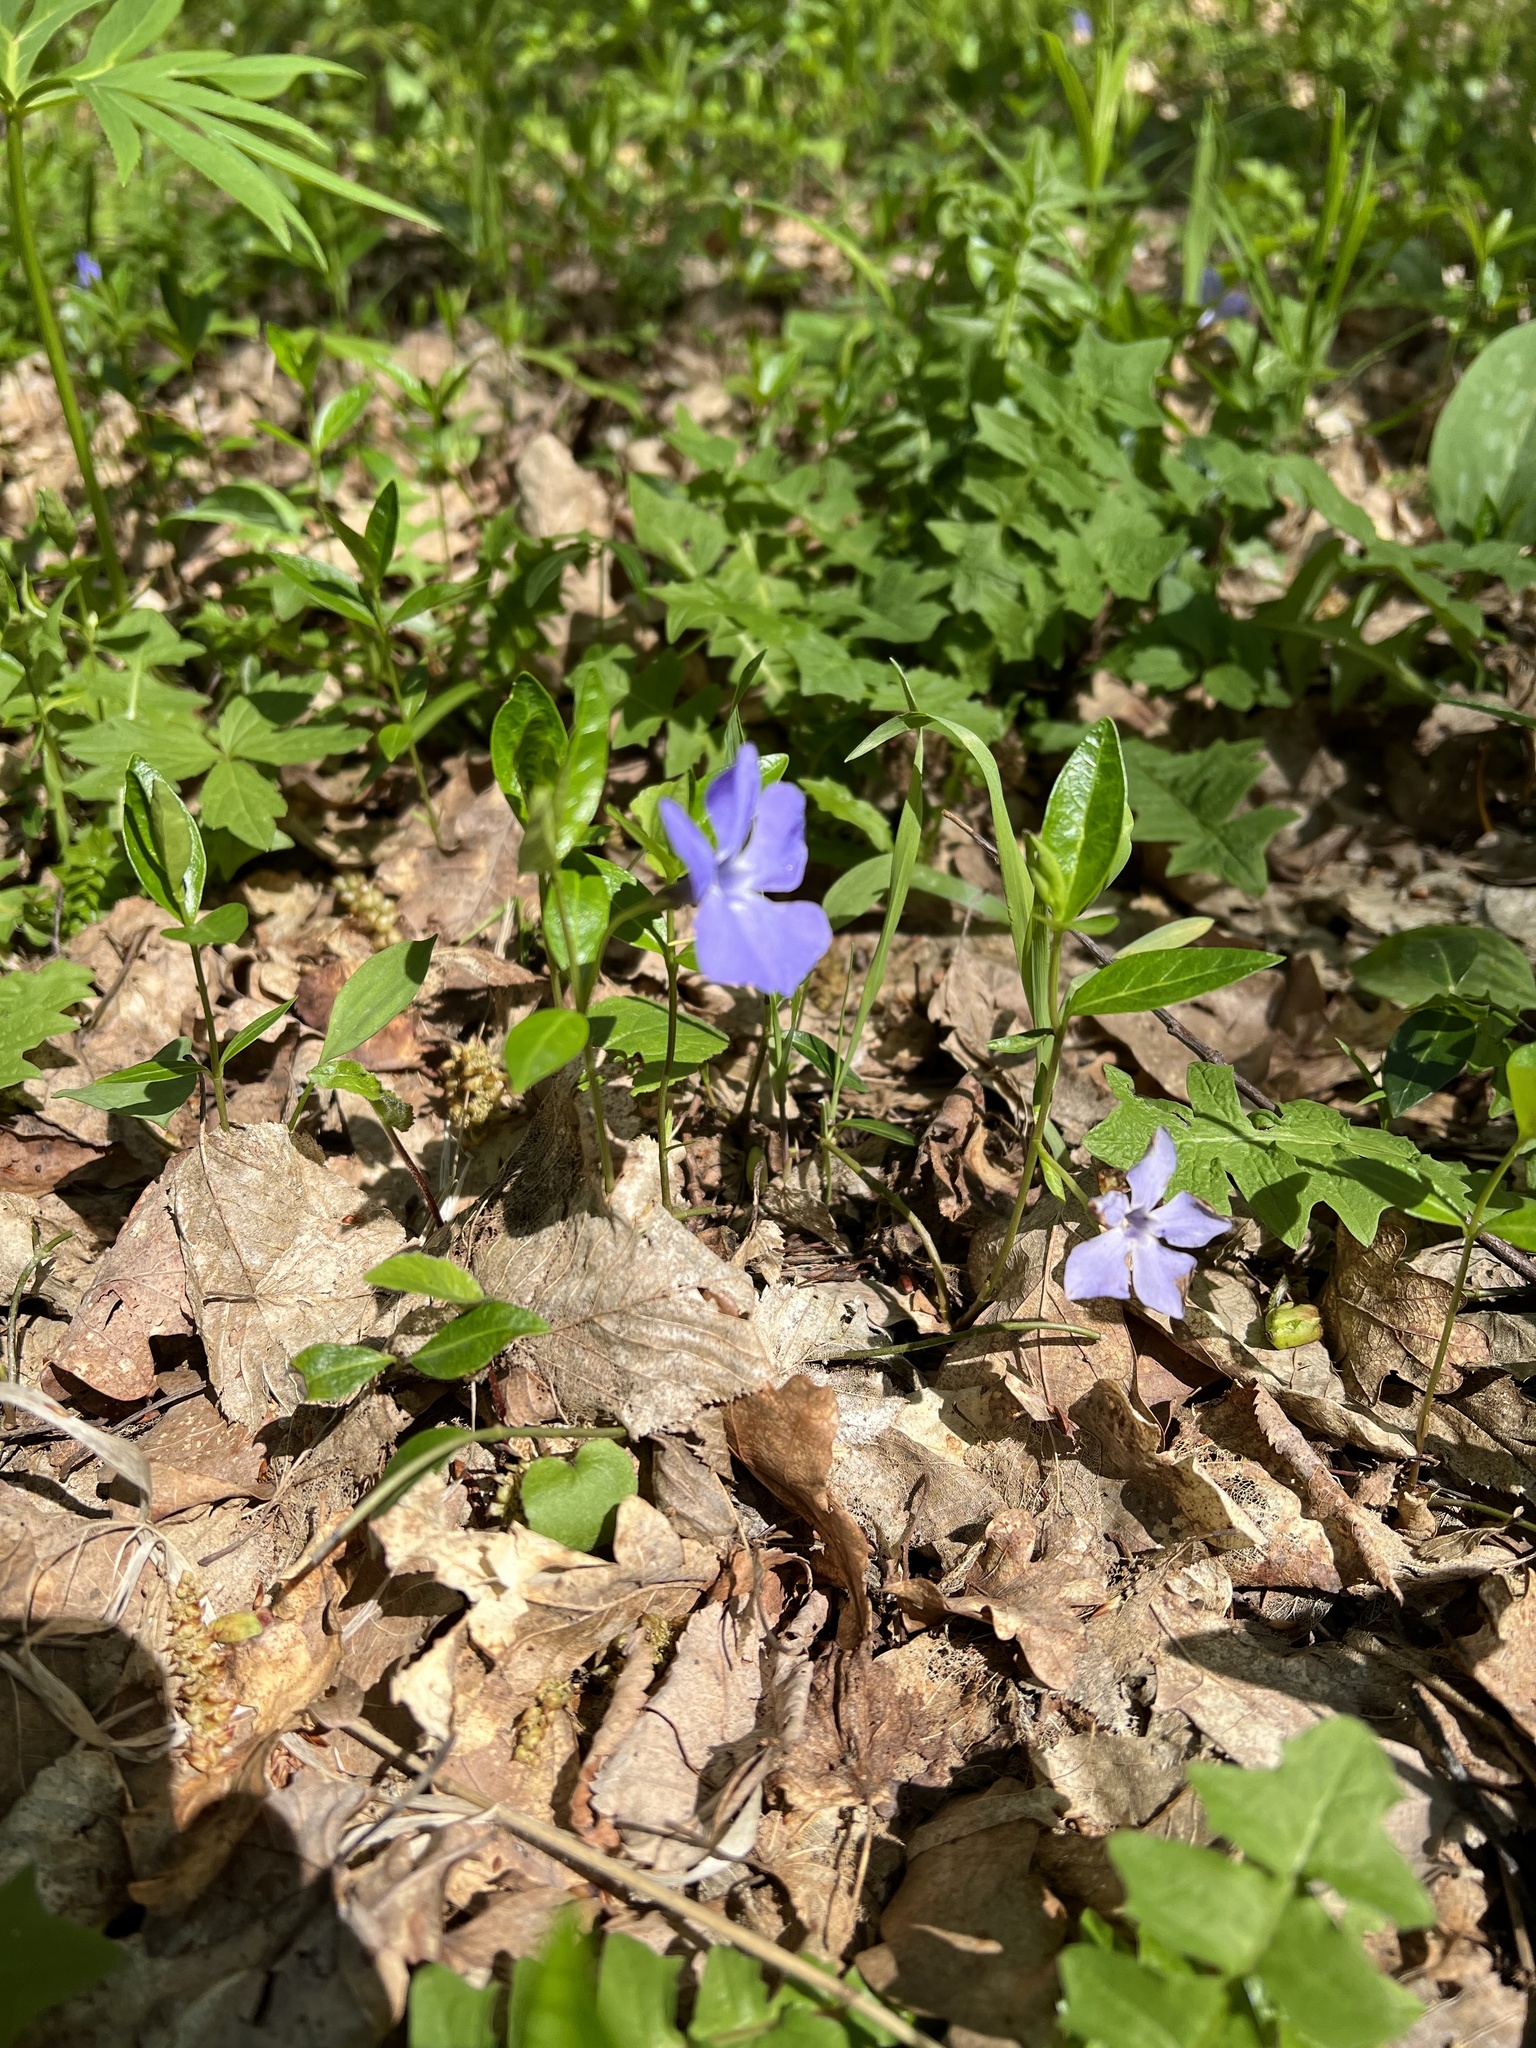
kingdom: Plantae
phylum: Tracheophyta
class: Magnoliopsida
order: Gentianales
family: Apocynaceae
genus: Vinca
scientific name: Vinca minor
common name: Lesser periwinkle
